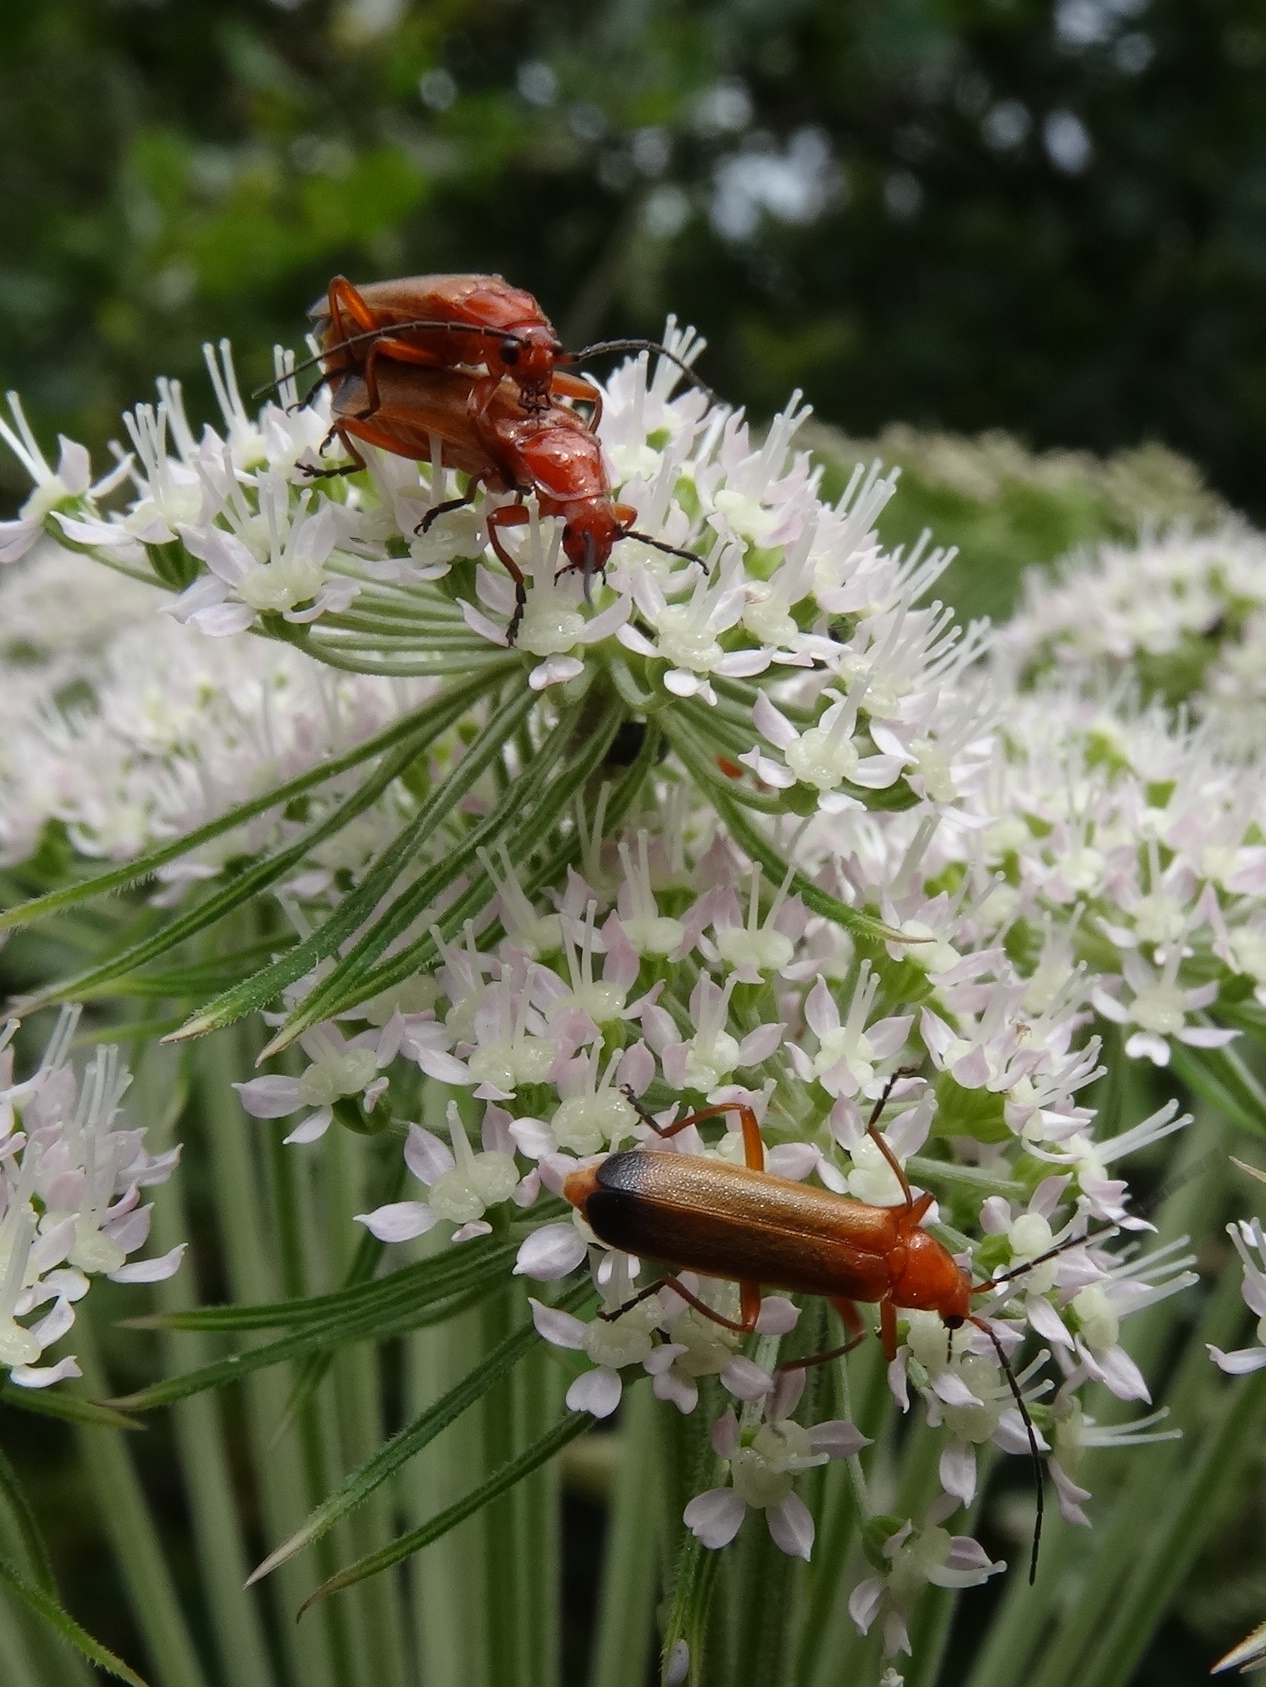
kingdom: Animalia
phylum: Arthropoda
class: Insecta
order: Coleoptera
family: Cantharidae
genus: Rhagonycha
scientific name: Rhagonycha fulva
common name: Common red soldier beetle
